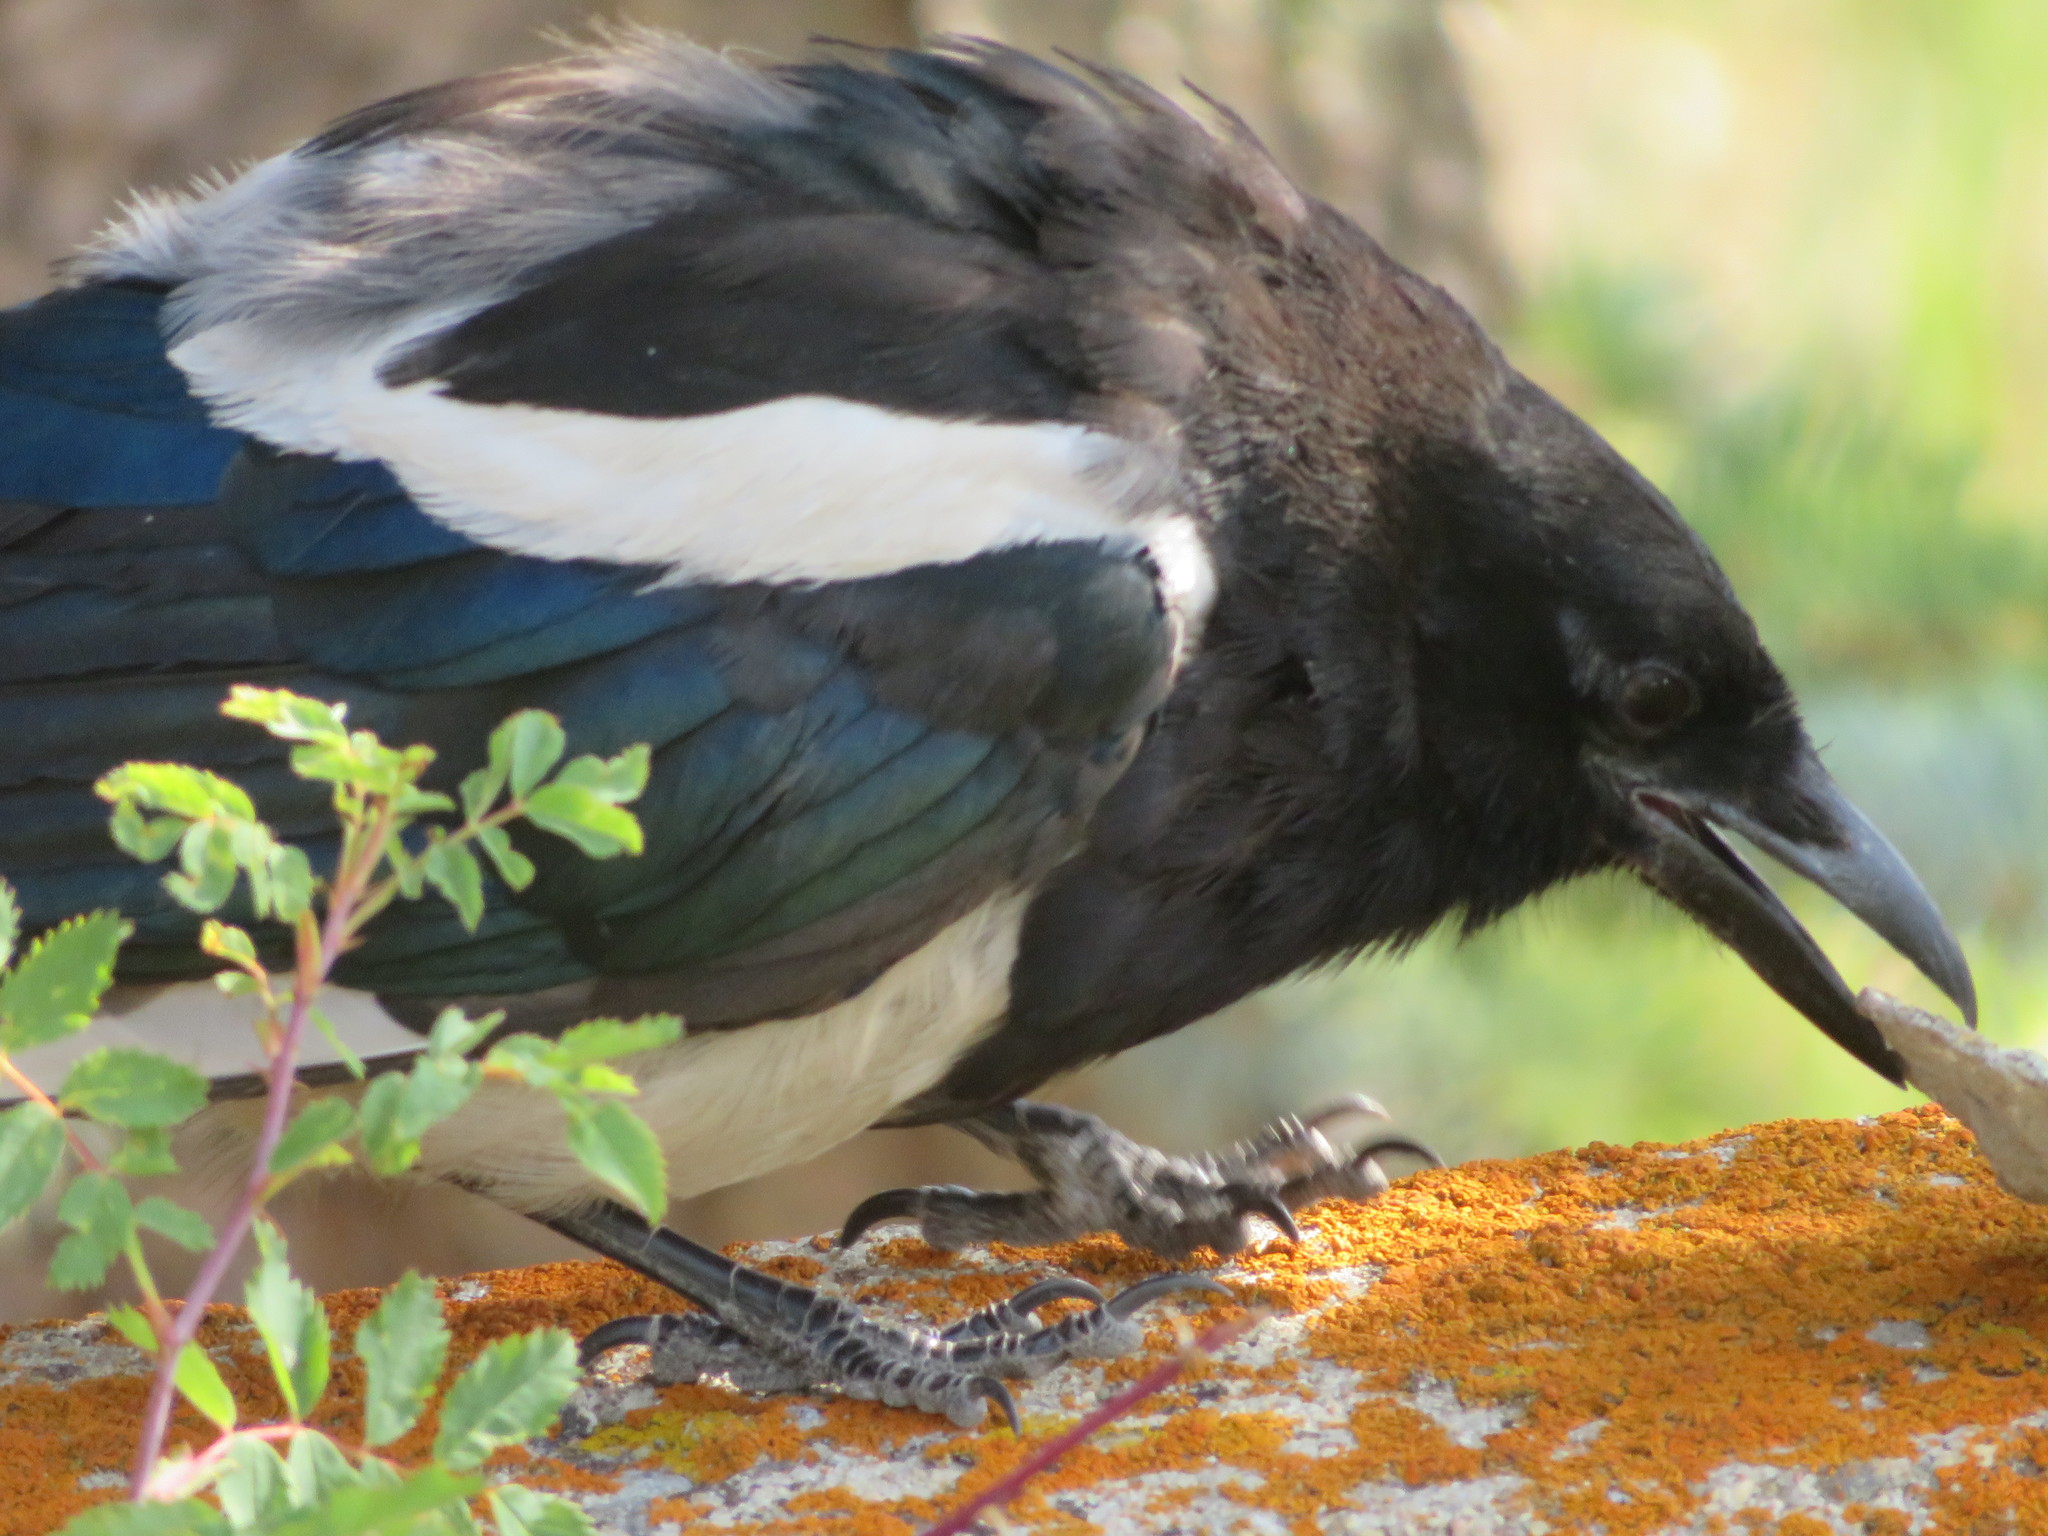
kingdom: Animalia
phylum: Chordata
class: Aves
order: Passeriformes
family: Corvidae
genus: Pica
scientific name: Pica hudsonia
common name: Black-billed magpie
